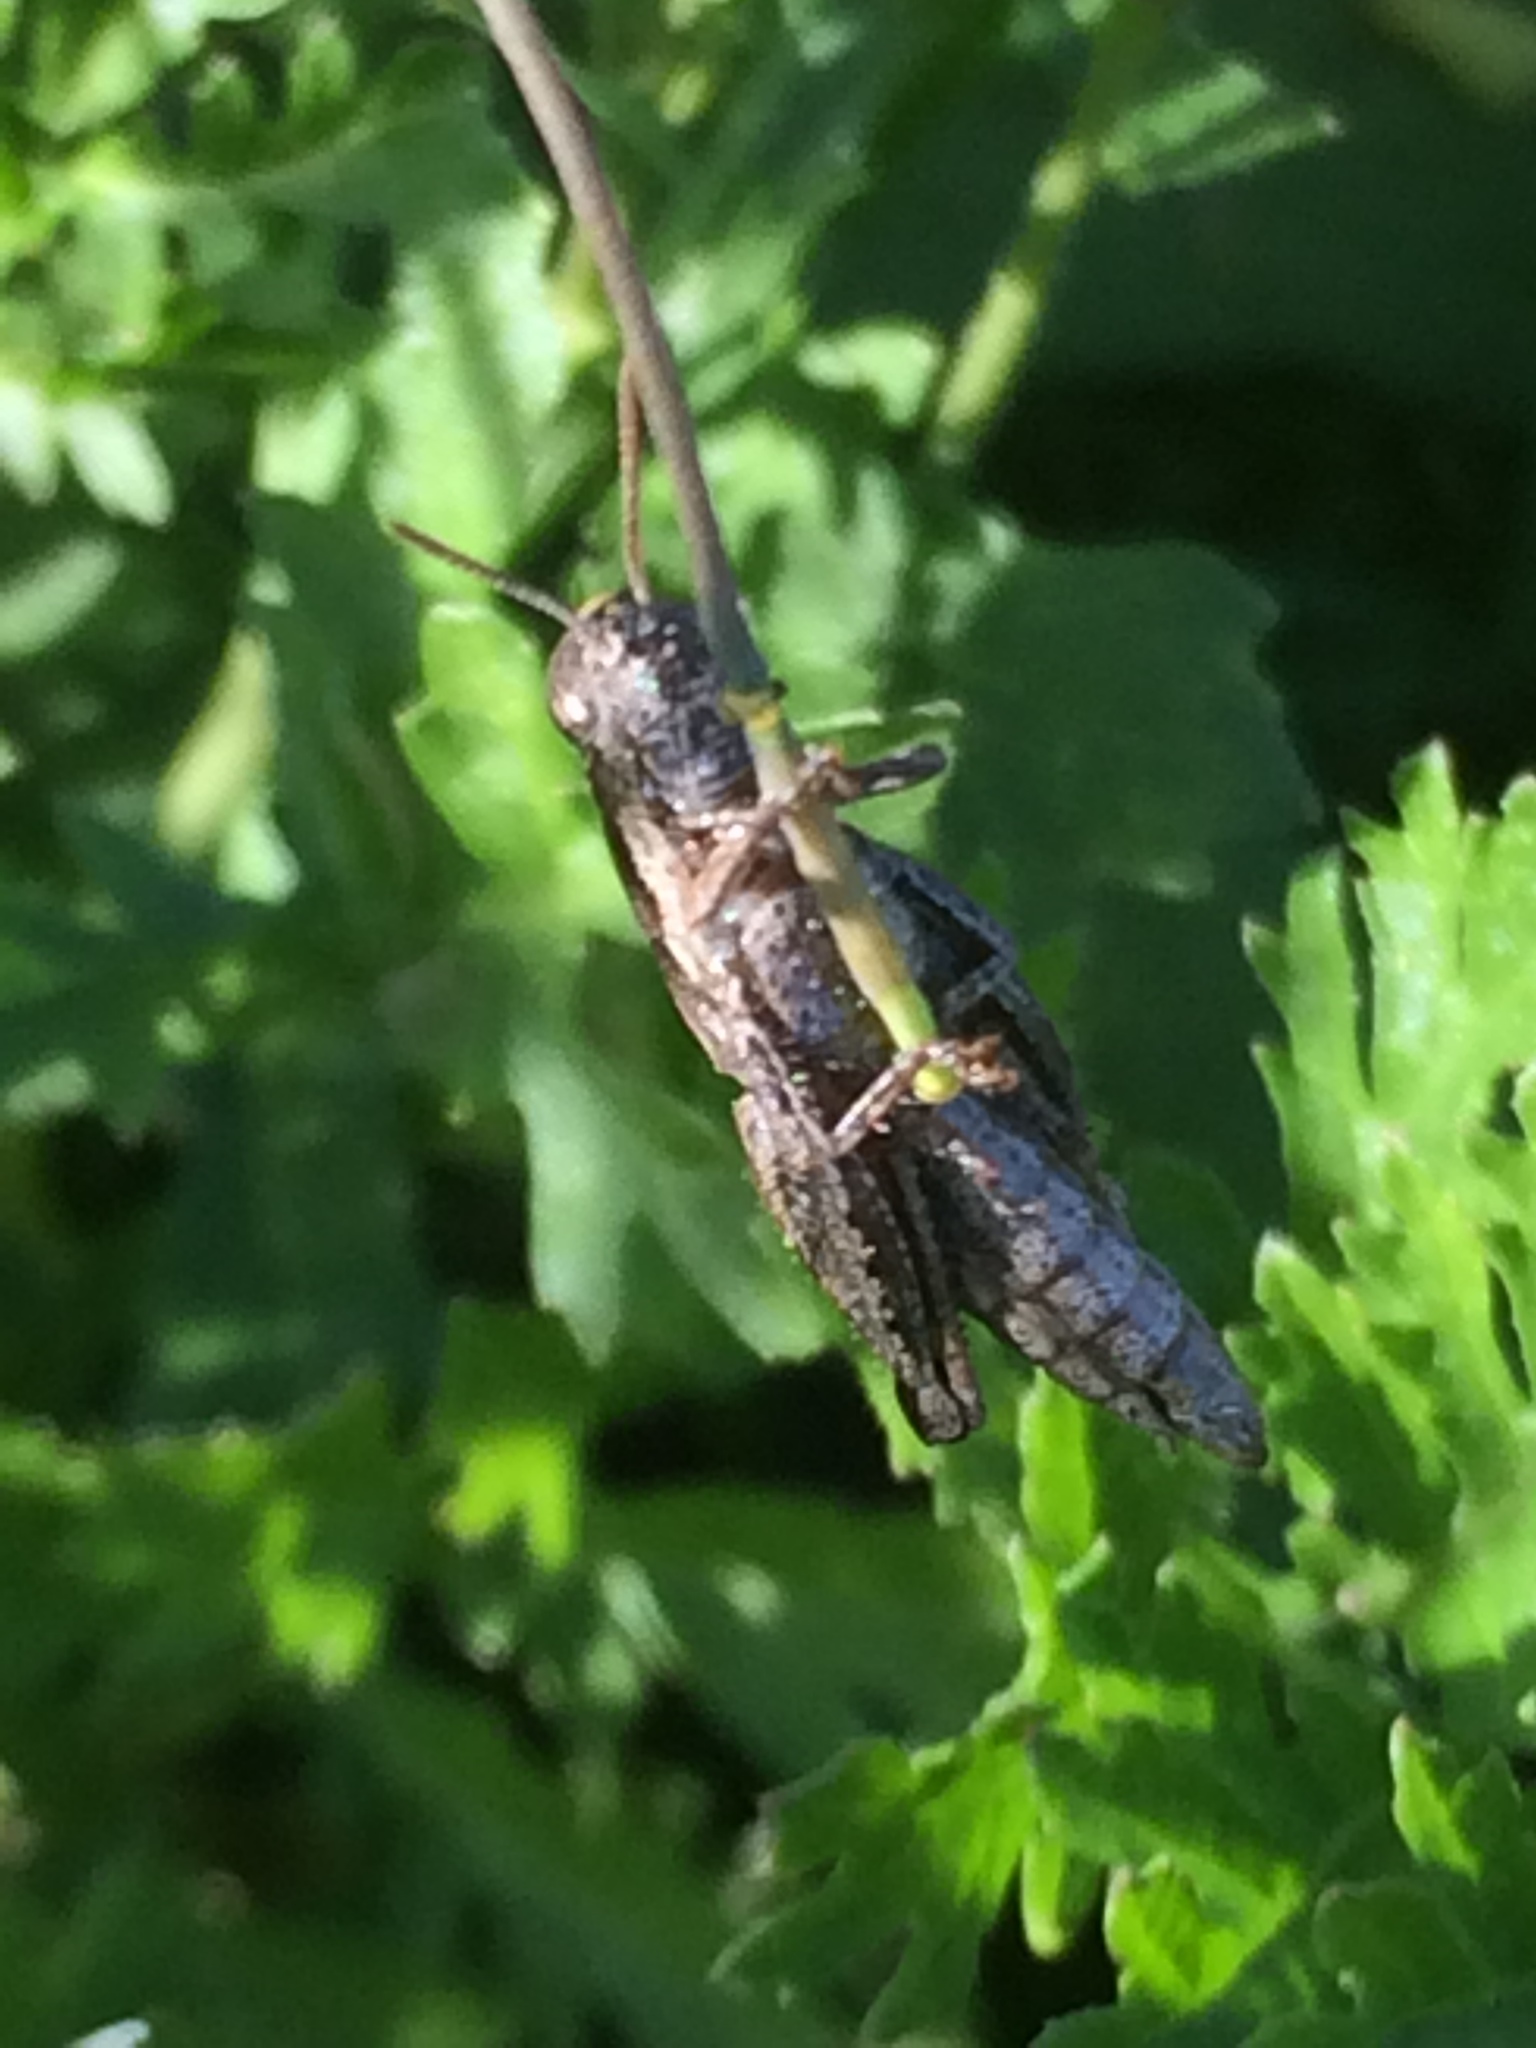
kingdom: Animalia
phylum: Arthropoda
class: Insecta
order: Orthoptera
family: Acrididae
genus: Pezotettix
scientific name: Pezotettix giornae
